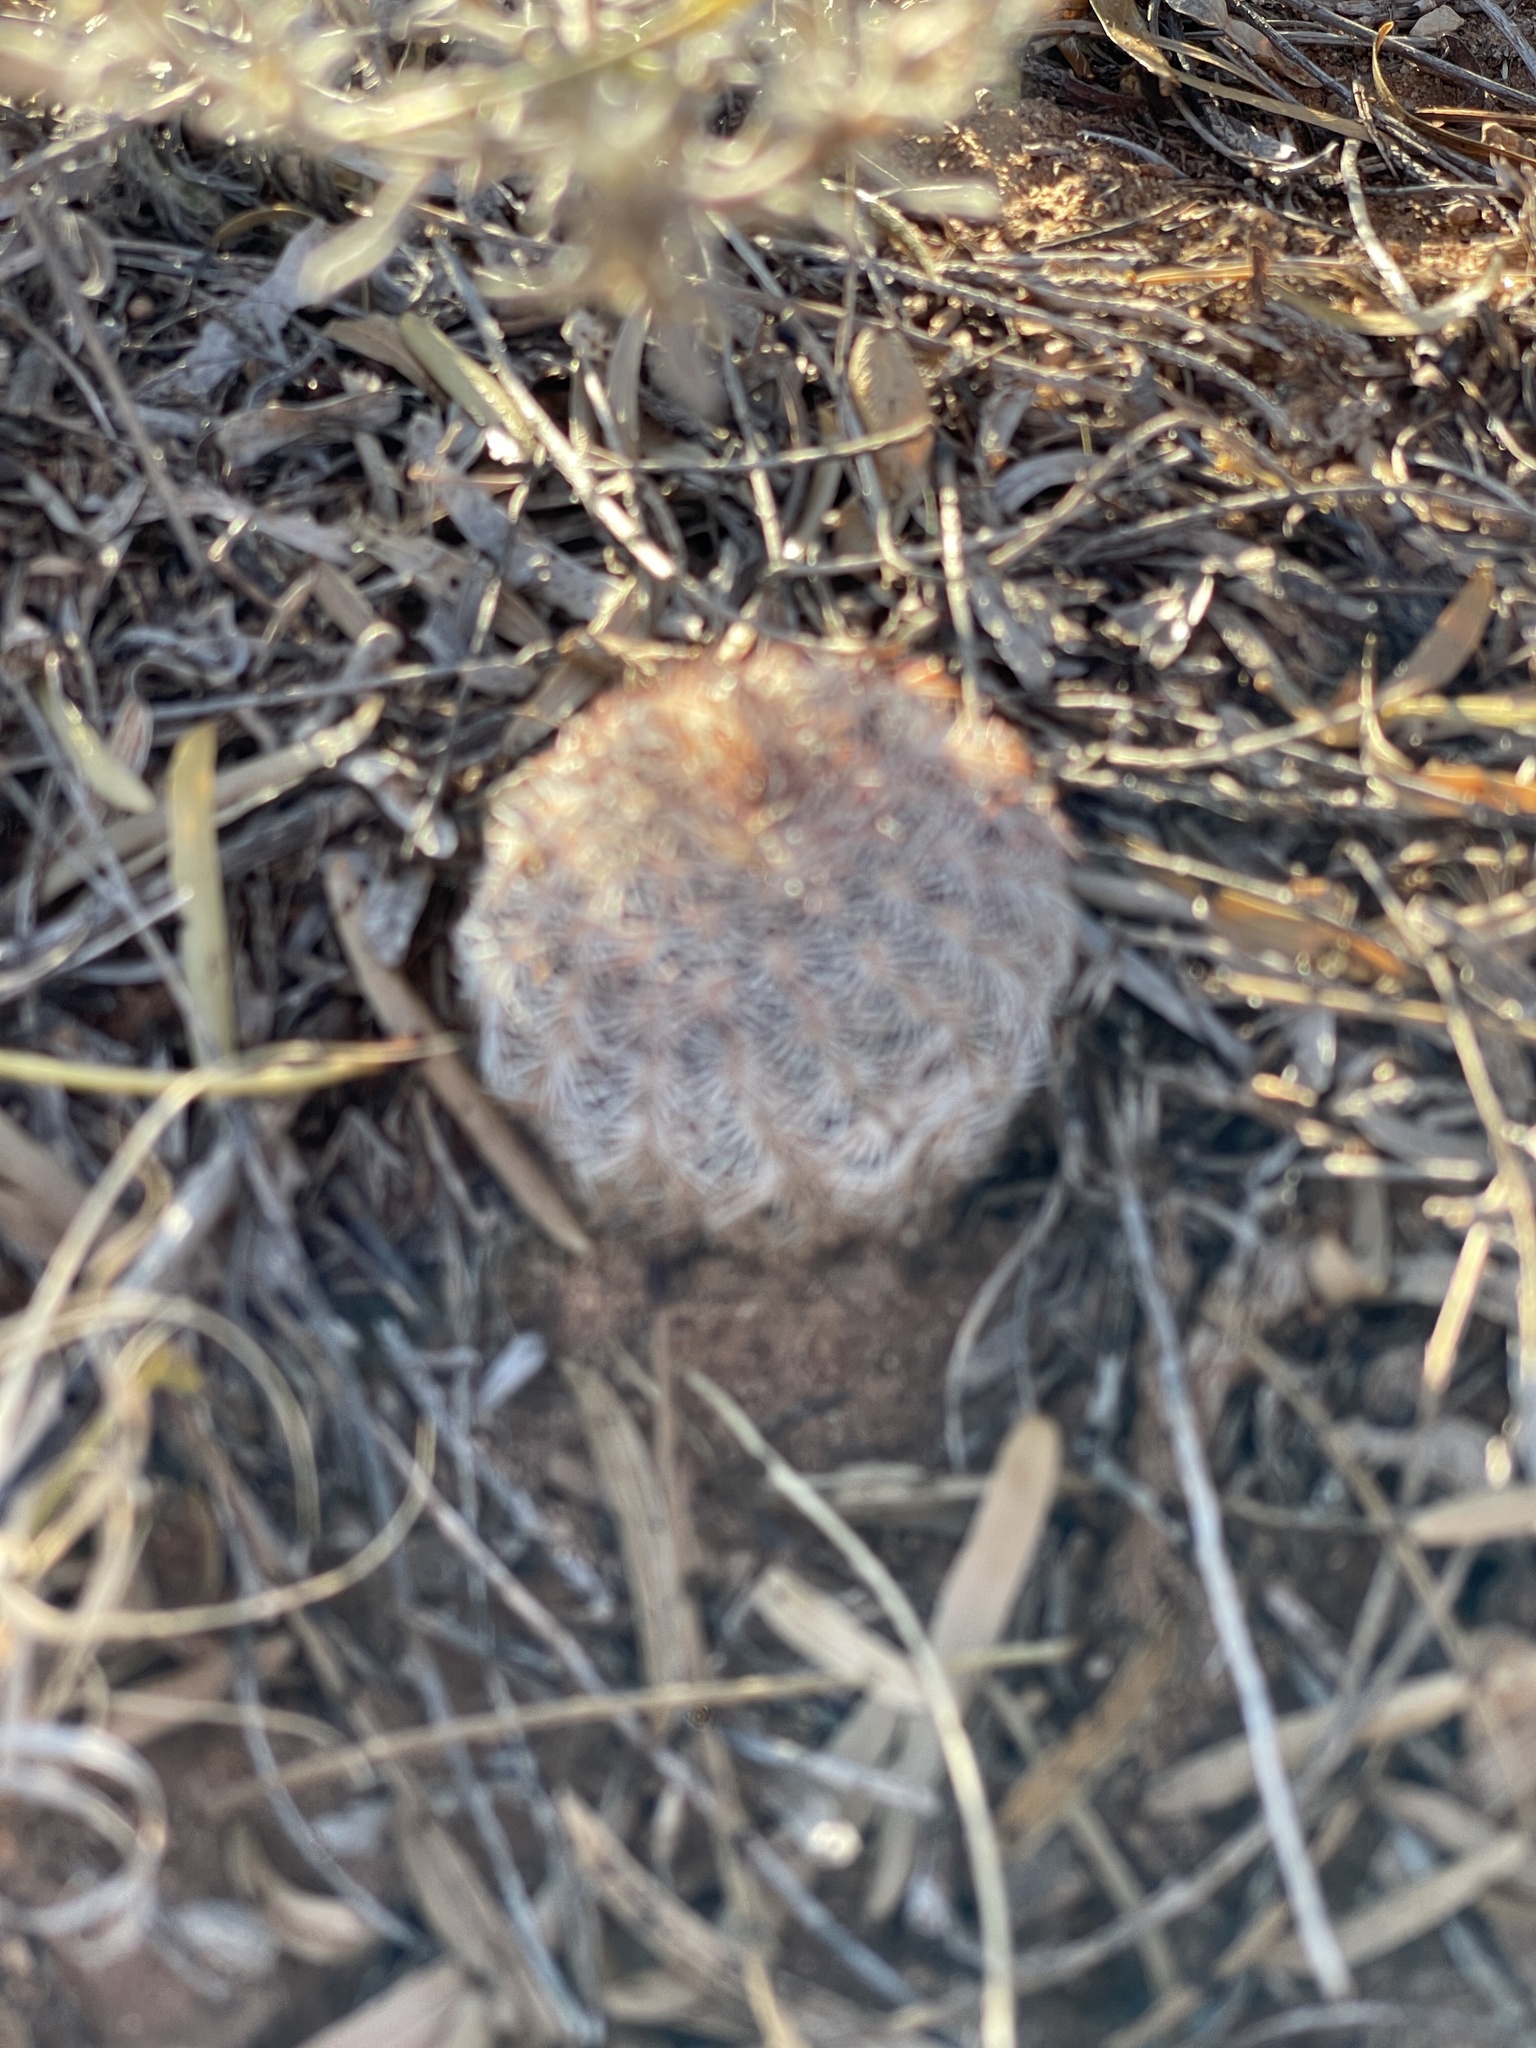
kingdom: Plantae
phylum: Tracheophyta
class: Magnoliopsida
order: Caryophyllales
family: Cactaceae
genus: Echinocereus
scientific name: Echinocereus reichenbachii
